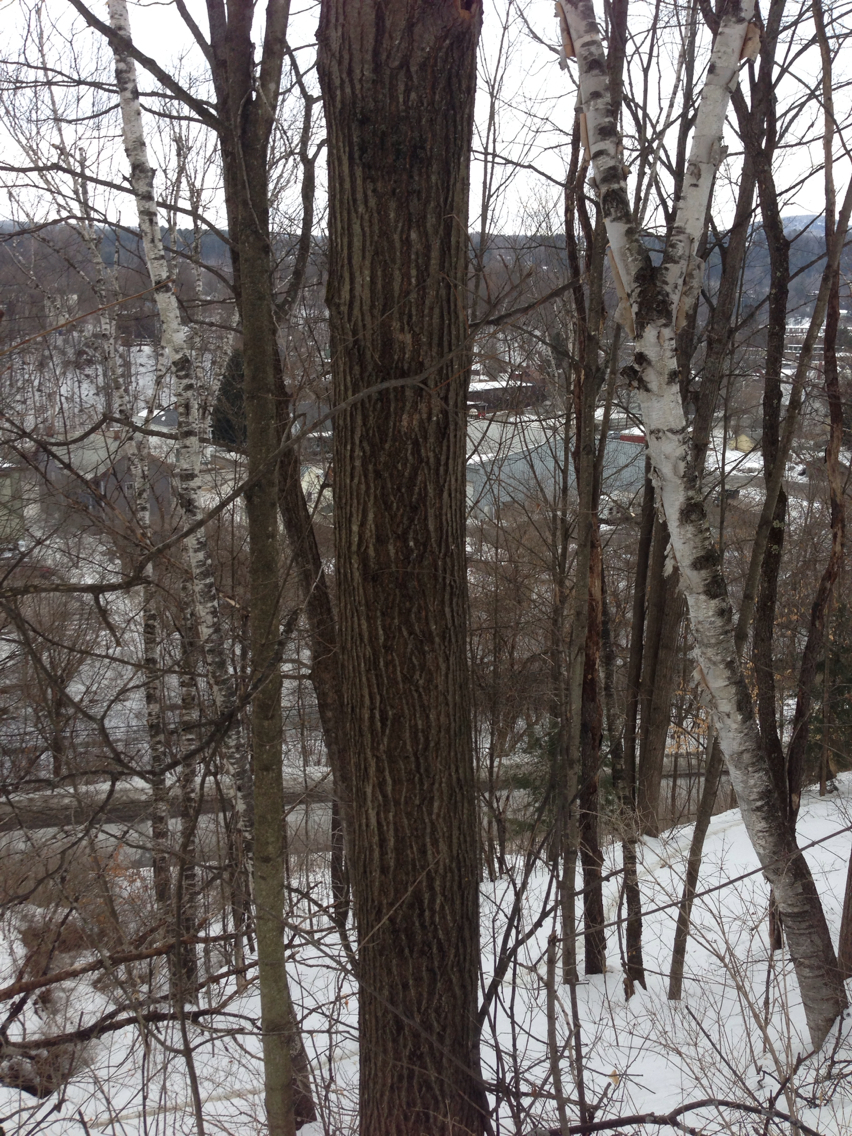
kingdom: Plantae
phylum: Tracheophyta
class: Magnoliopsida
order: Fagales
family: Fagaceae
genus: Quercus
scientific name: Quercus rubra
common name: Red oak
